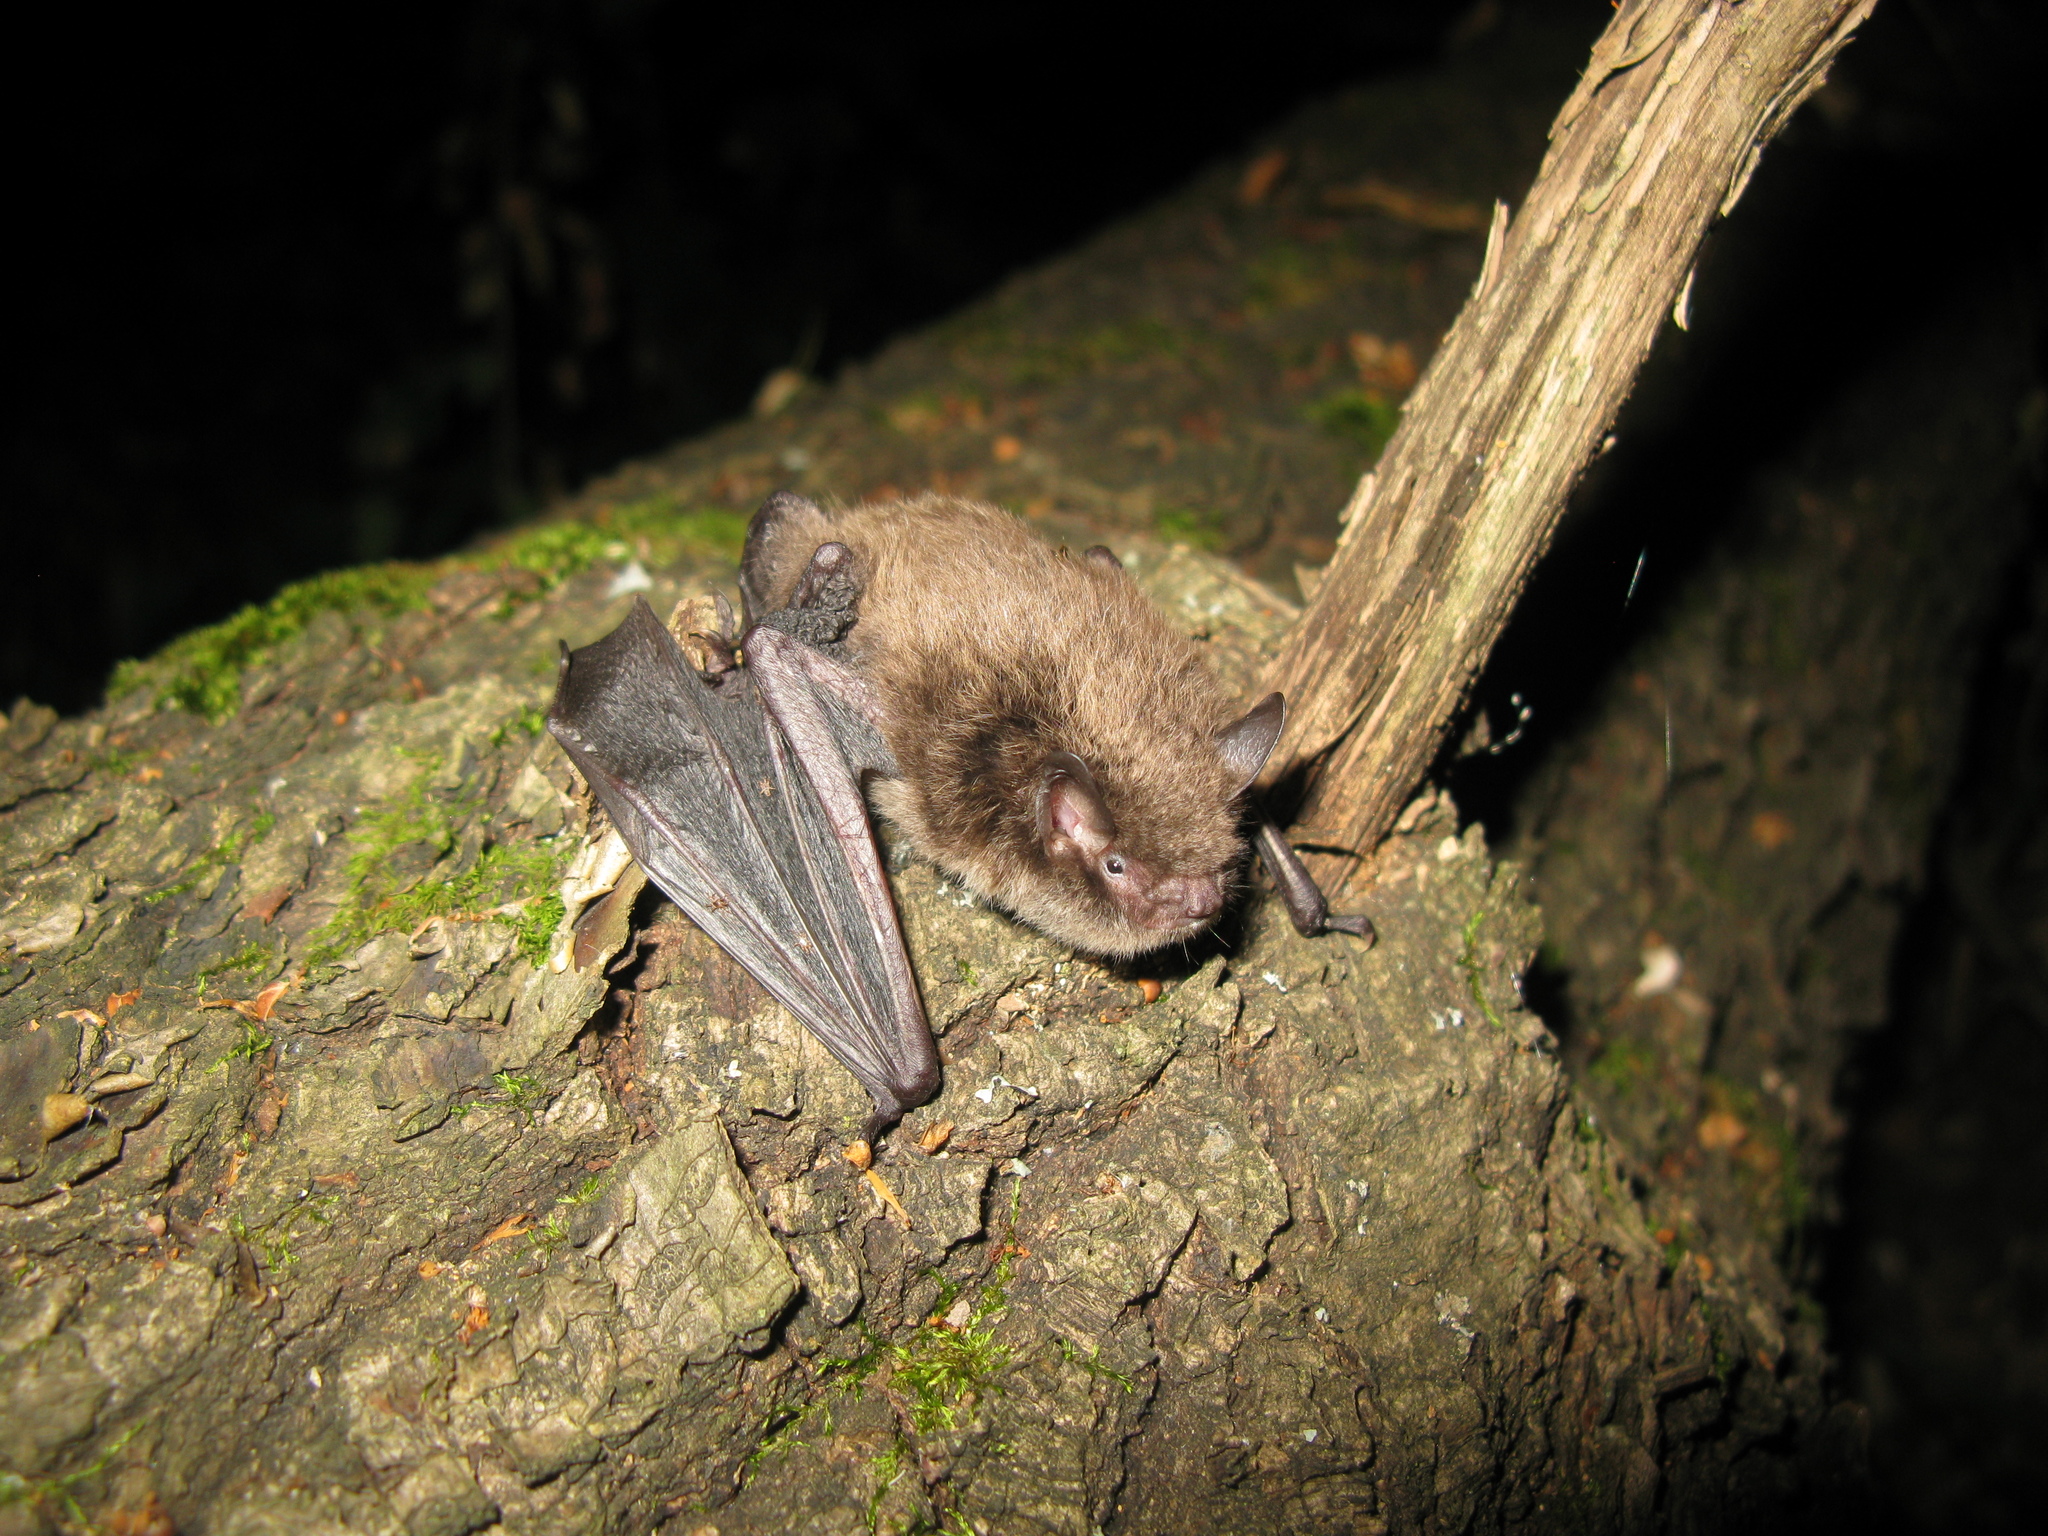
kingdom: Animalia
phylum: Chordata
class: Mammalia
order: Chiroptera
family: Vespertilionidae
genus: Myotis
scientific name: Myotis daubentonii
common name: Daubenton's myotis
